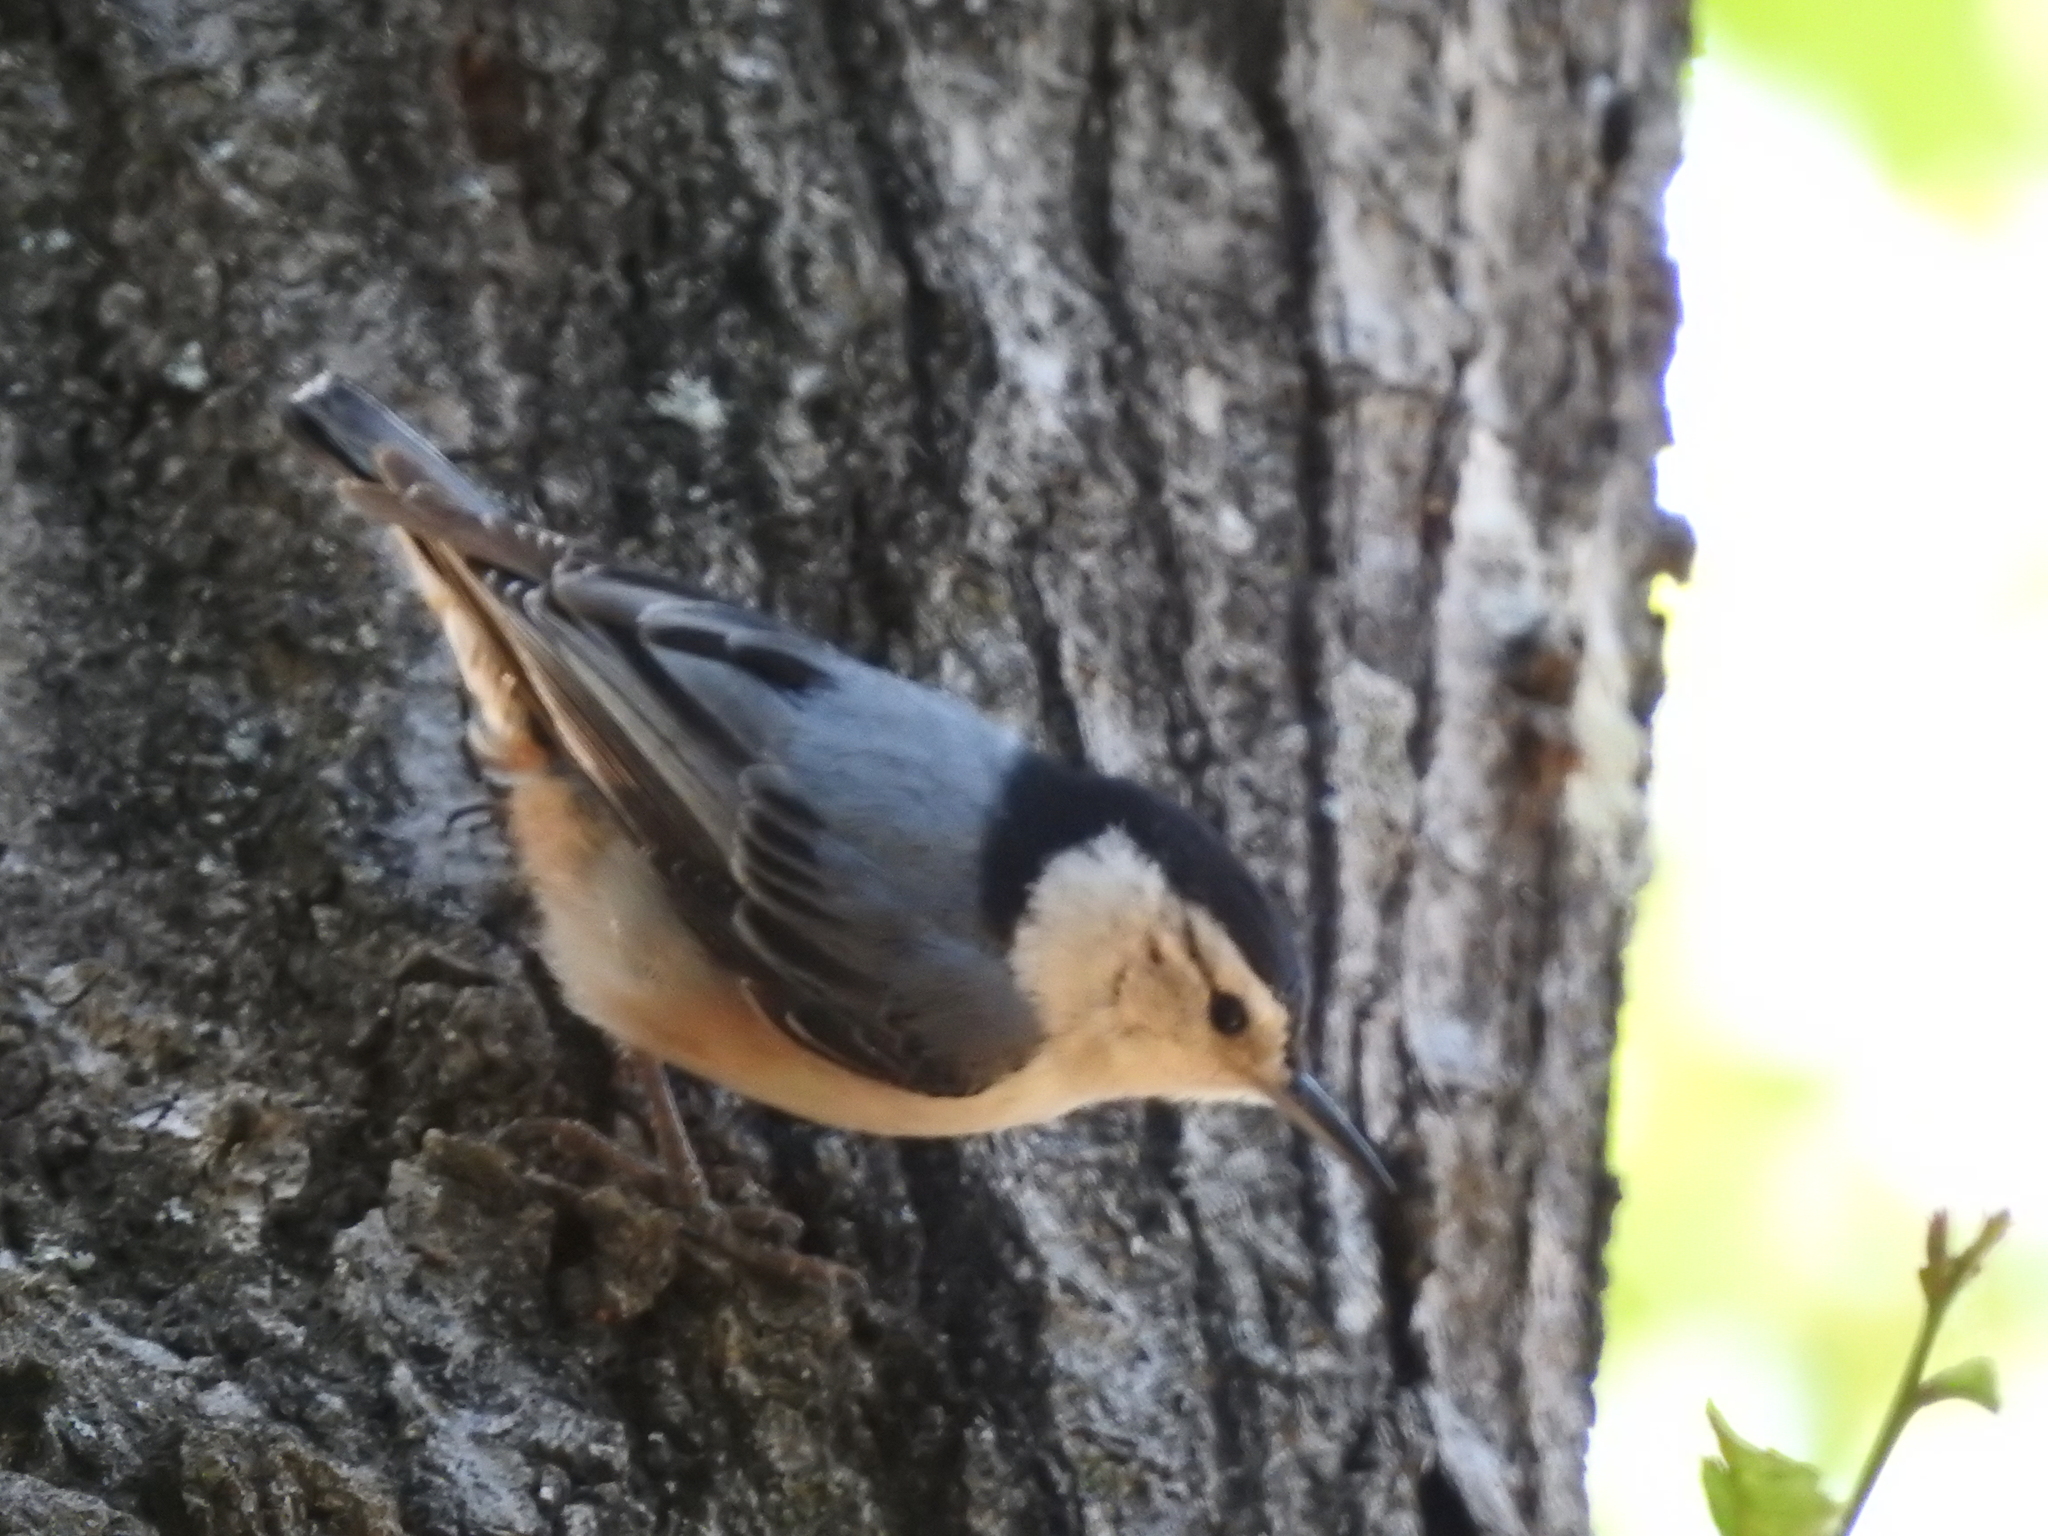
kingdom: Animalia
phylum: Chordata
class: Aves
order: Passeriformes
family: Sittidae
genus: Sitta
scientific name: Sitta carolinensis
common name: White-breasted nuthatch
